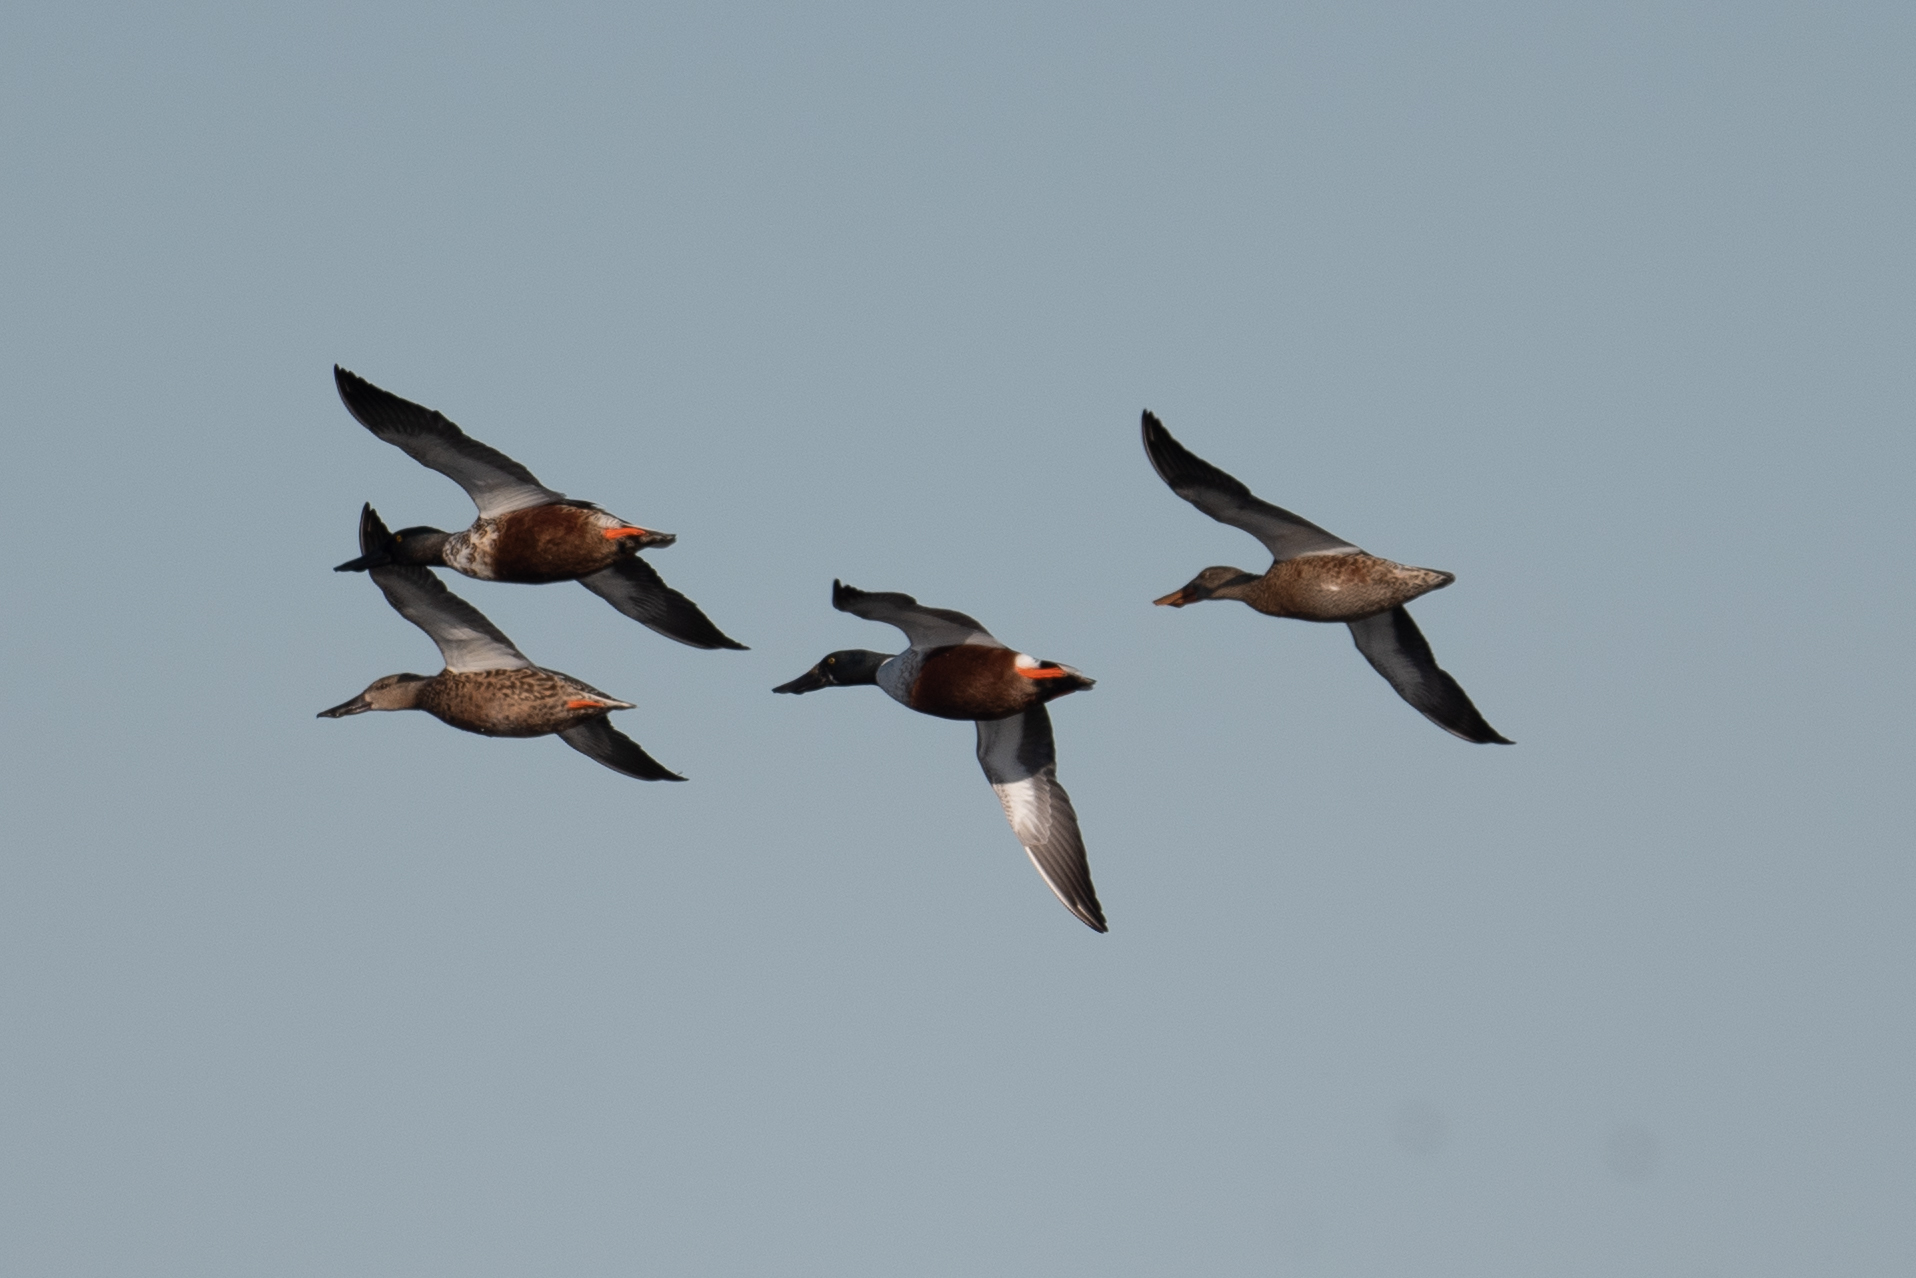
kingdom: Animalia
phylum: Chordata
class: Aves
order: Anseriformes
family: Anatidae
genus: Spatula
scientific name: Spatula clypeata
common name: Northern shoveler
